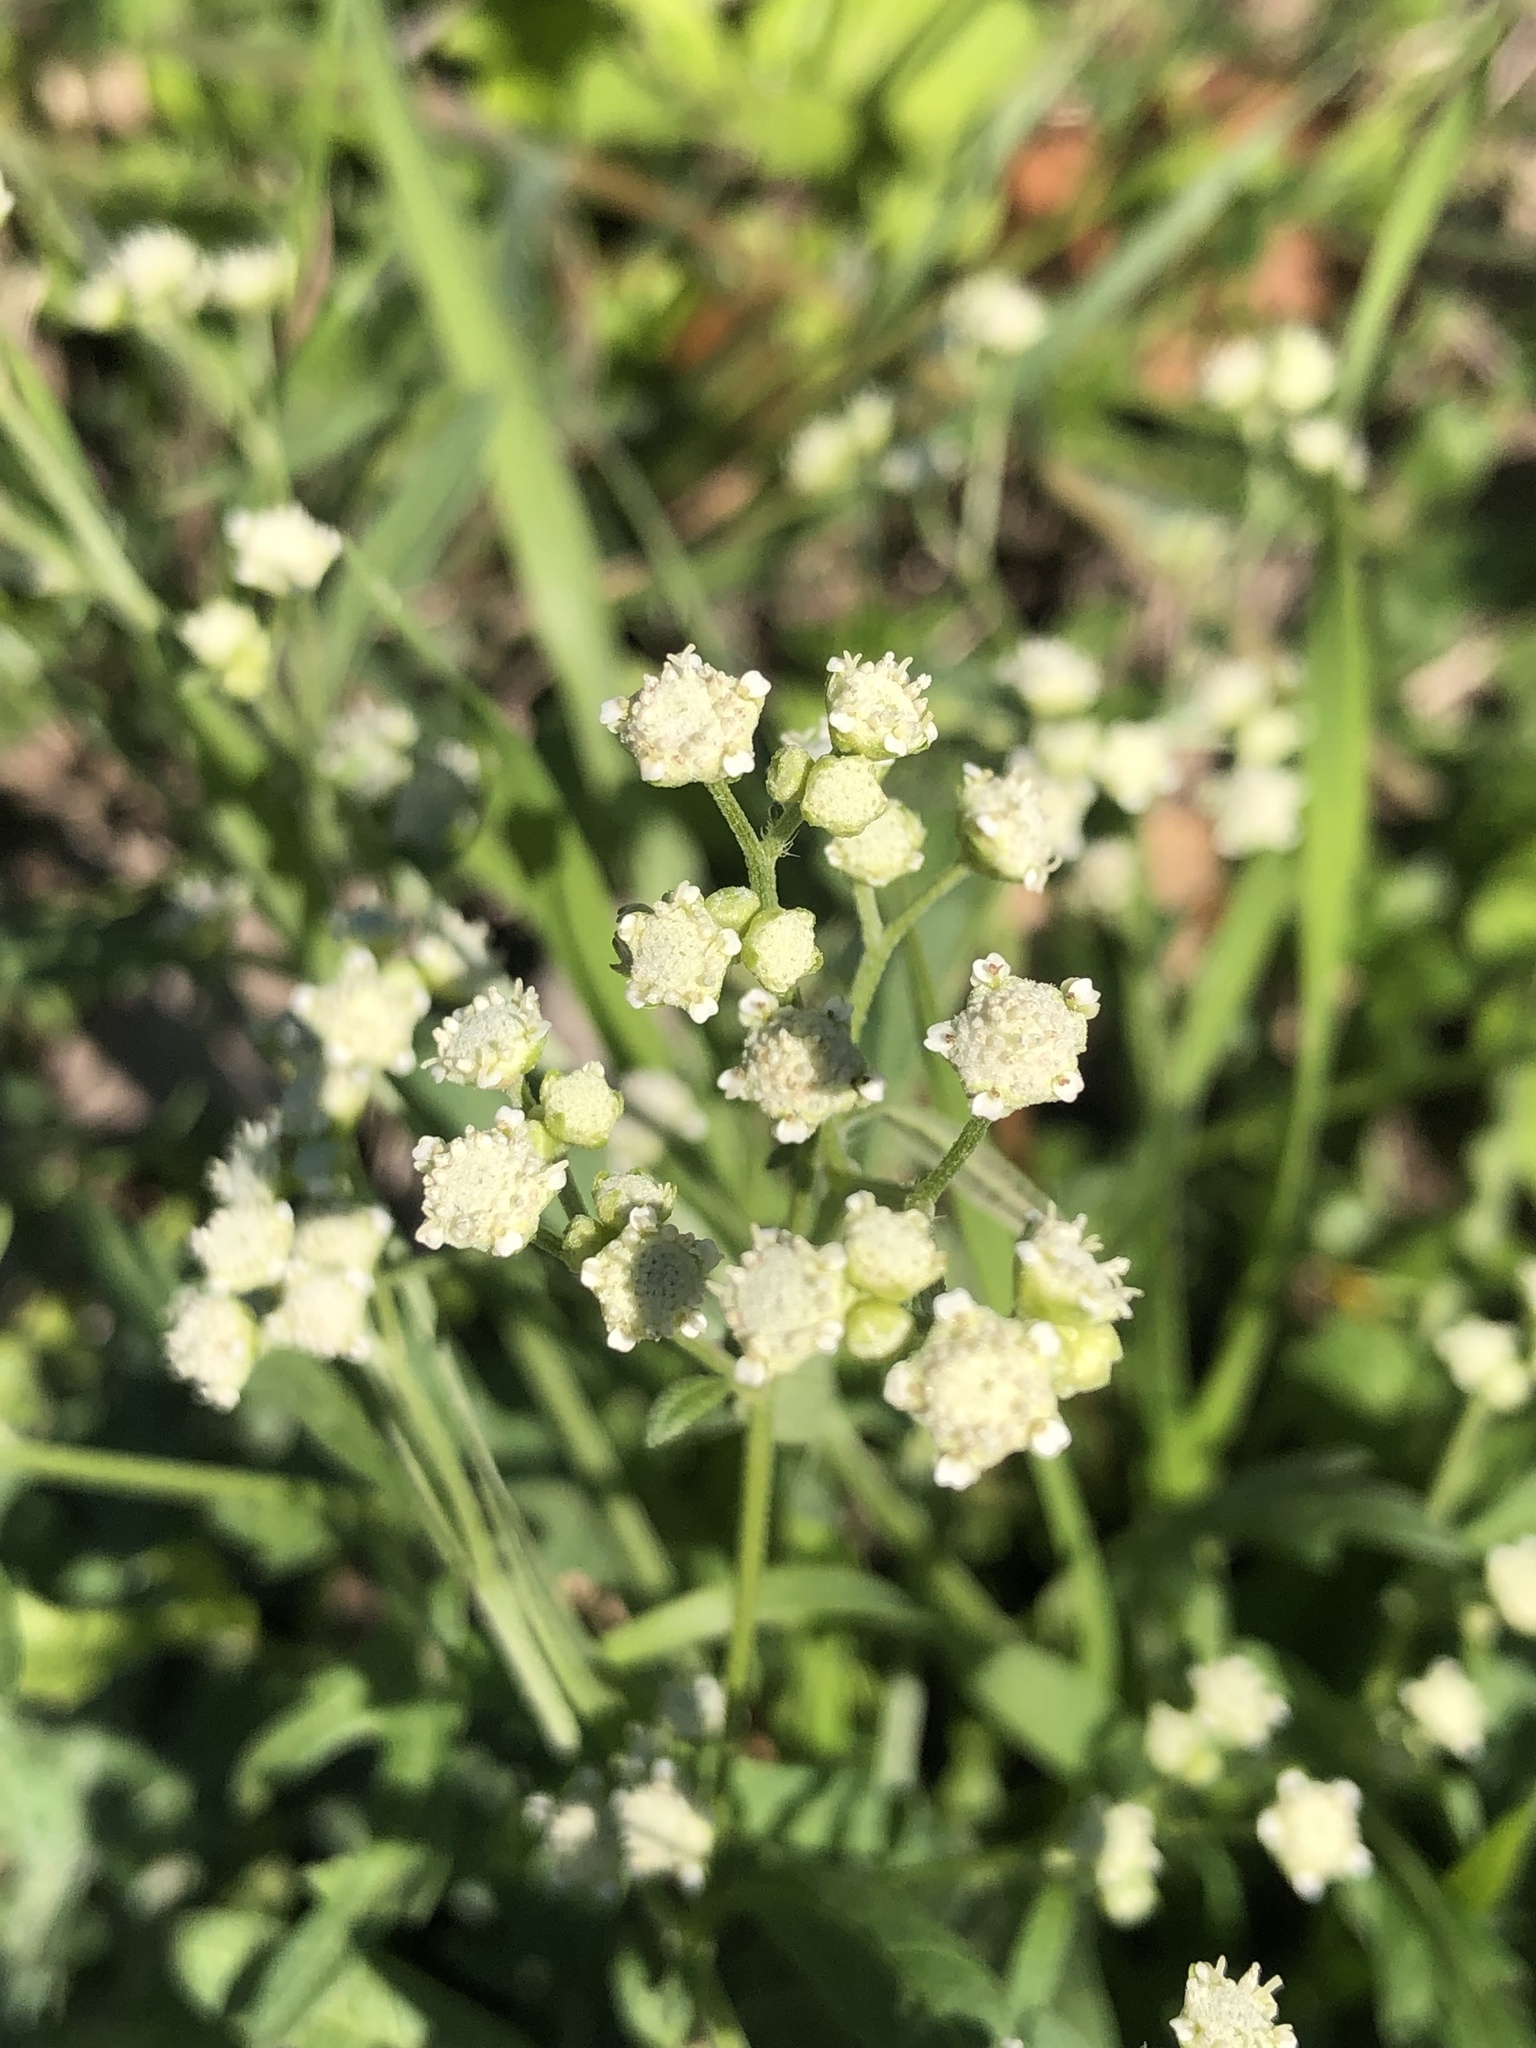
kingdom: Plantae
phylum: Tracheophyta
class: Magnoliopsida
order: Asterales
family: Asteraceae
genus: Parthenium
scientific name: Parthenium hysterophorus
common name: Santa maria feverfew
